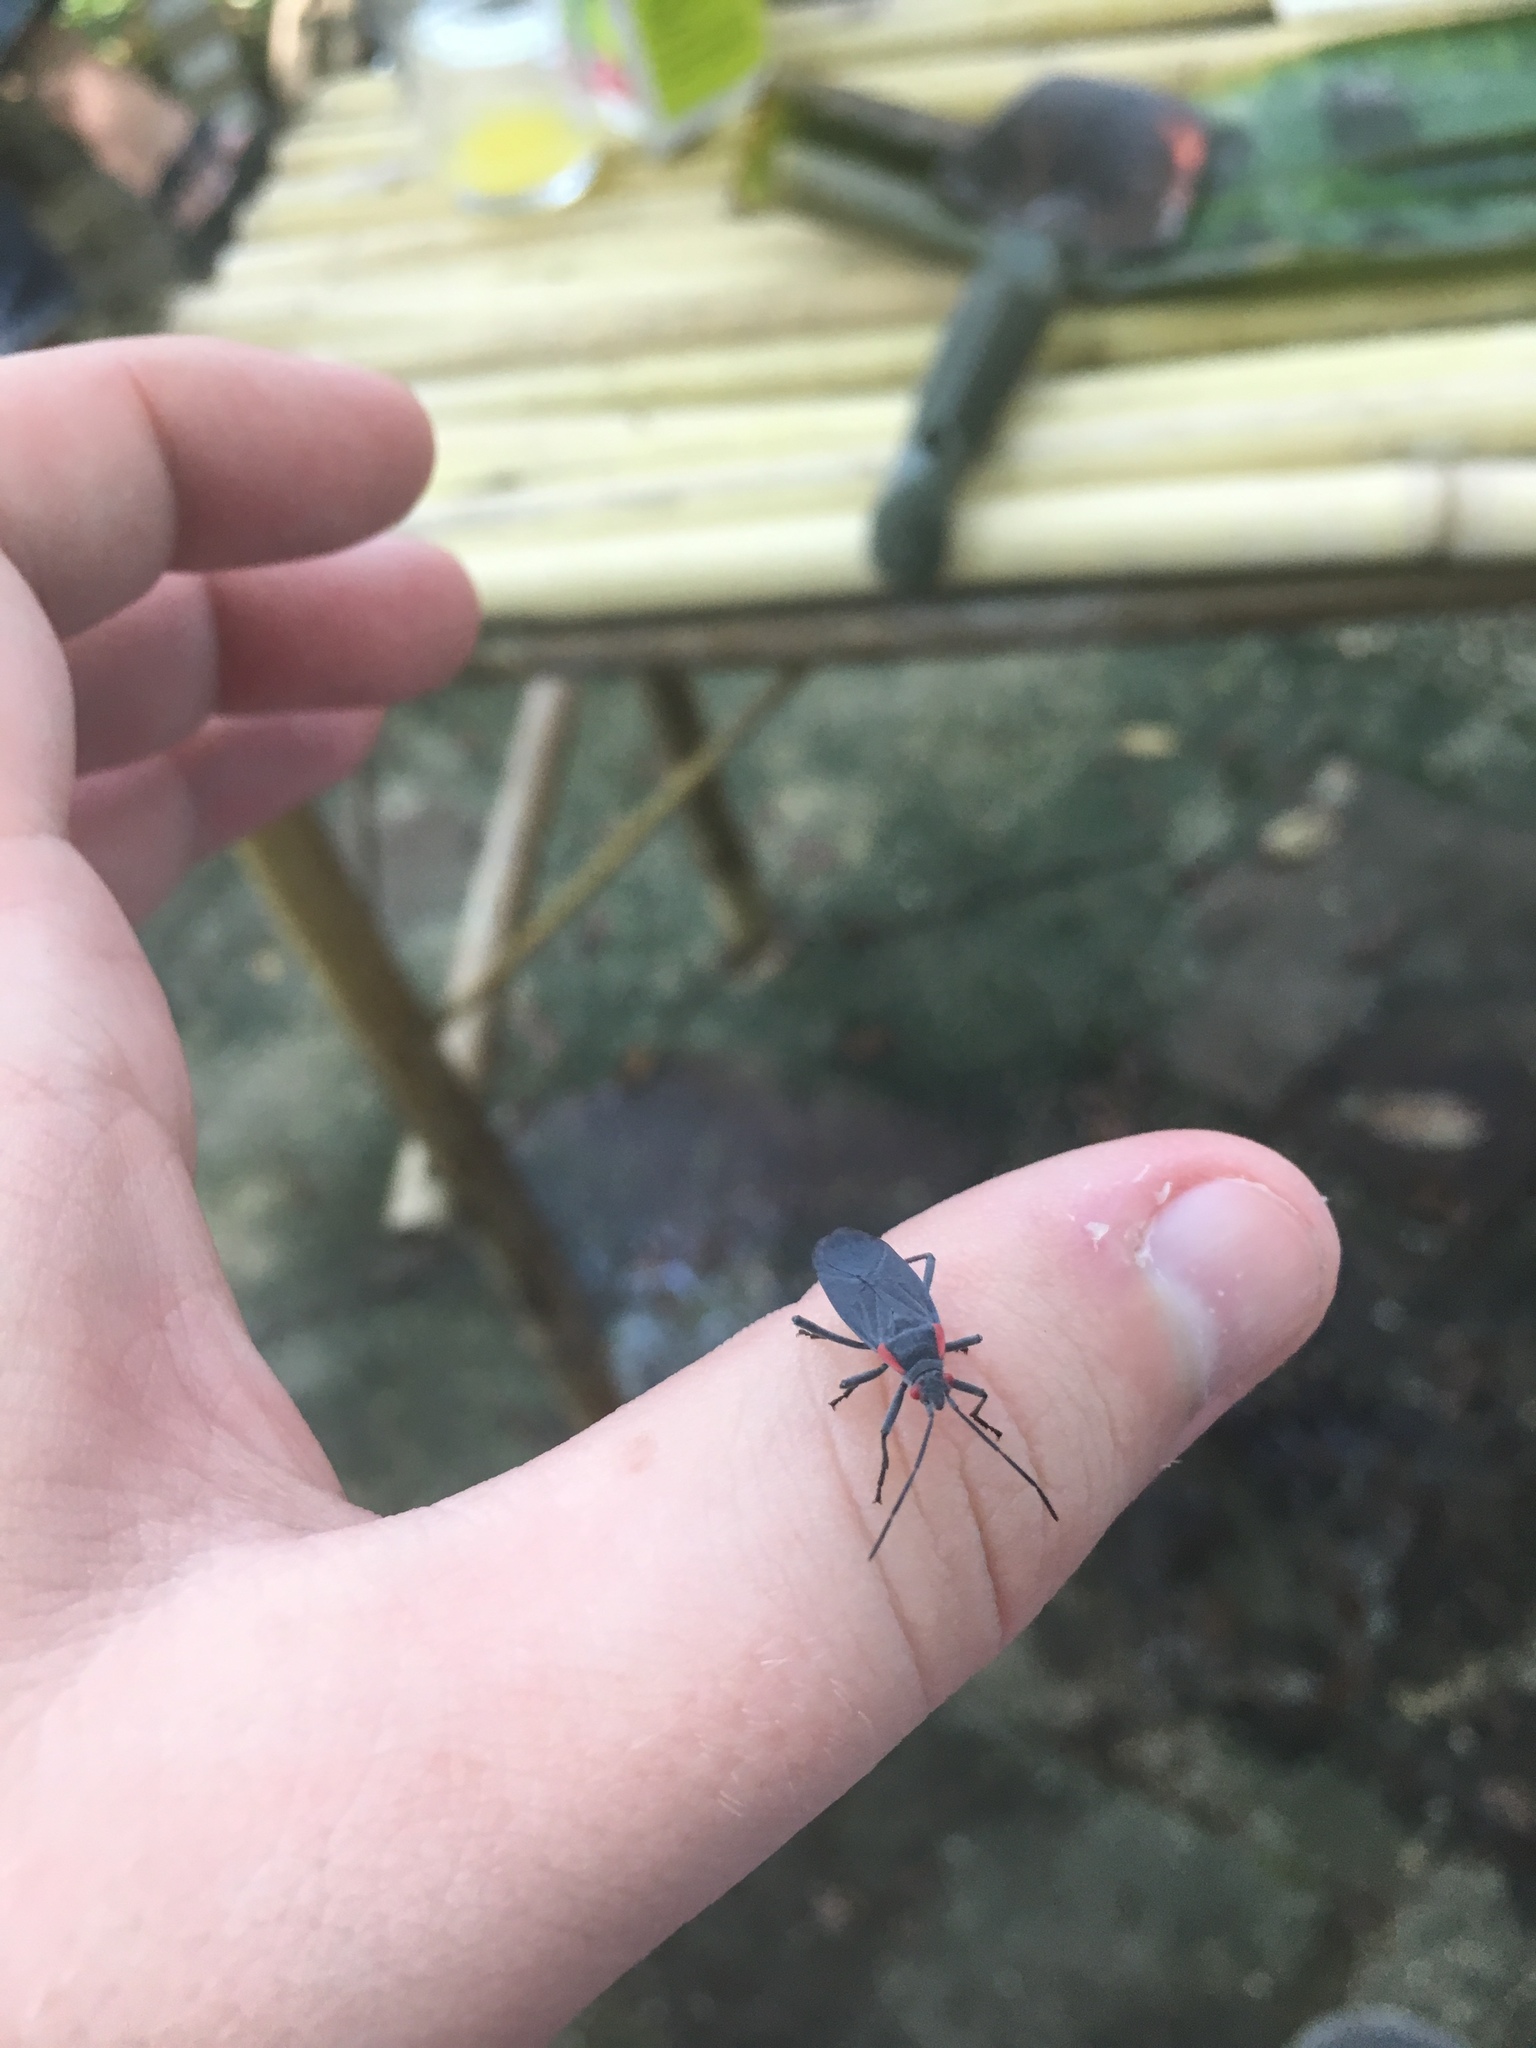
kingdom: Animalia
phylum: Arthropoda
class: Insecta
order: Hemiptera
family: Rhopalidae
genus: Jadera
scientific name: Jadera haematoloma
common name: Red-shouldered bug
